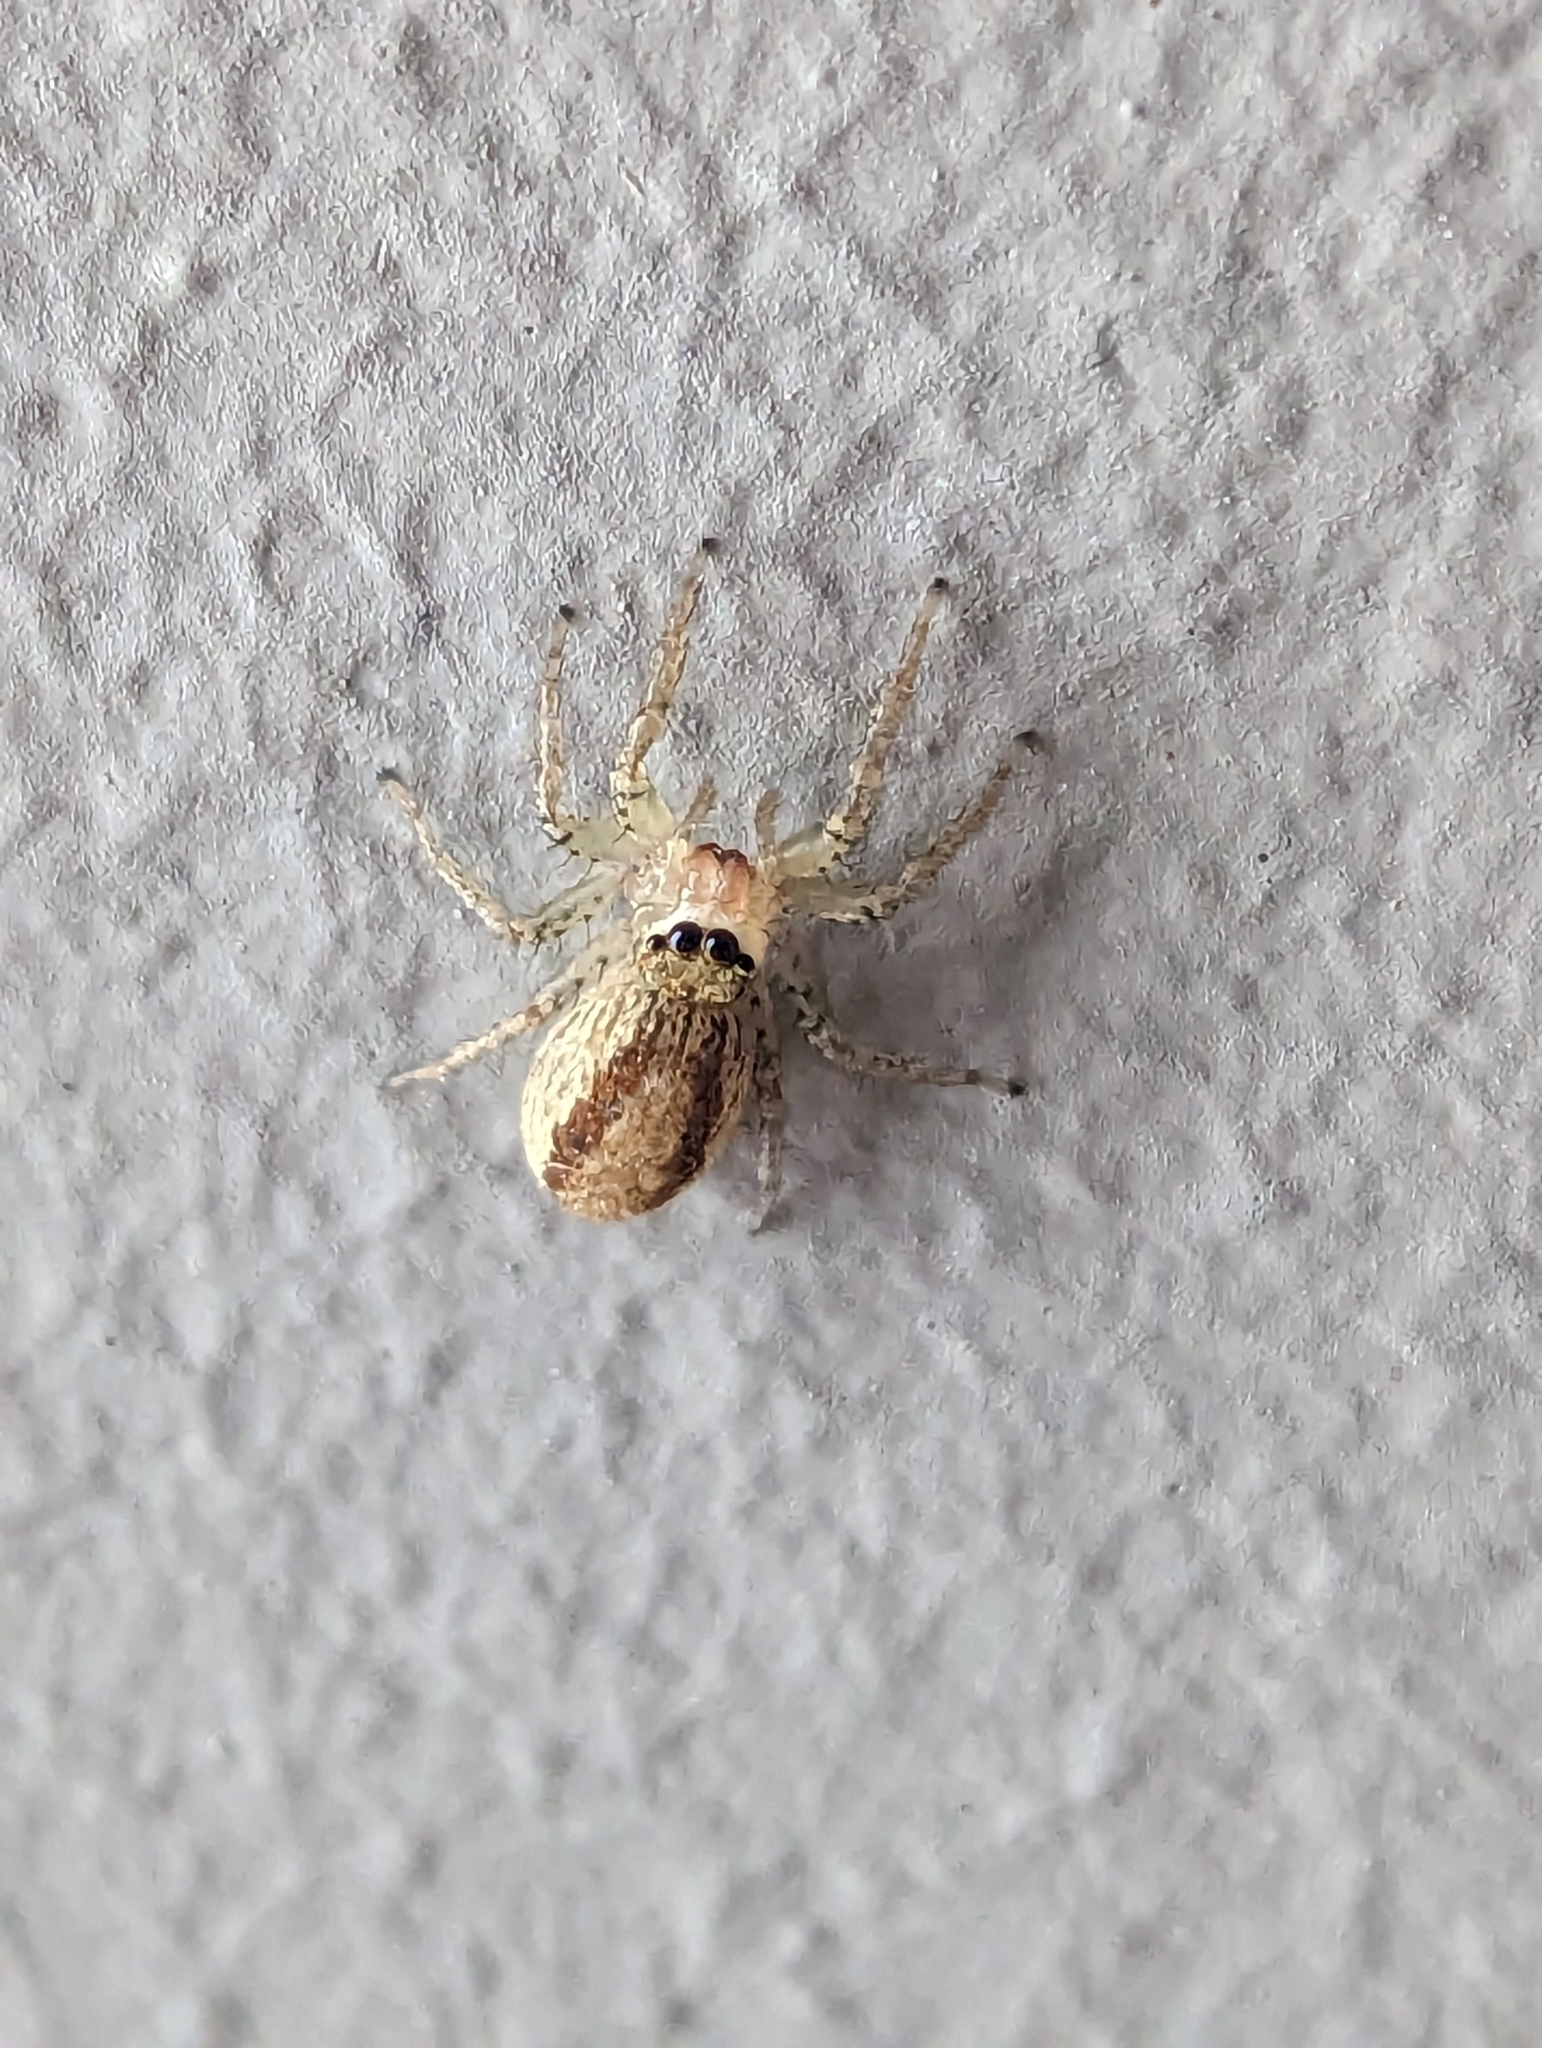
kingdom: Animalia
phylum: Arthropoda
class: Arachnida
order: Araneae
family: Salticidae
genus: Maevia
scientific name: Maevia inclemens
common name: Dimorphic jumper
